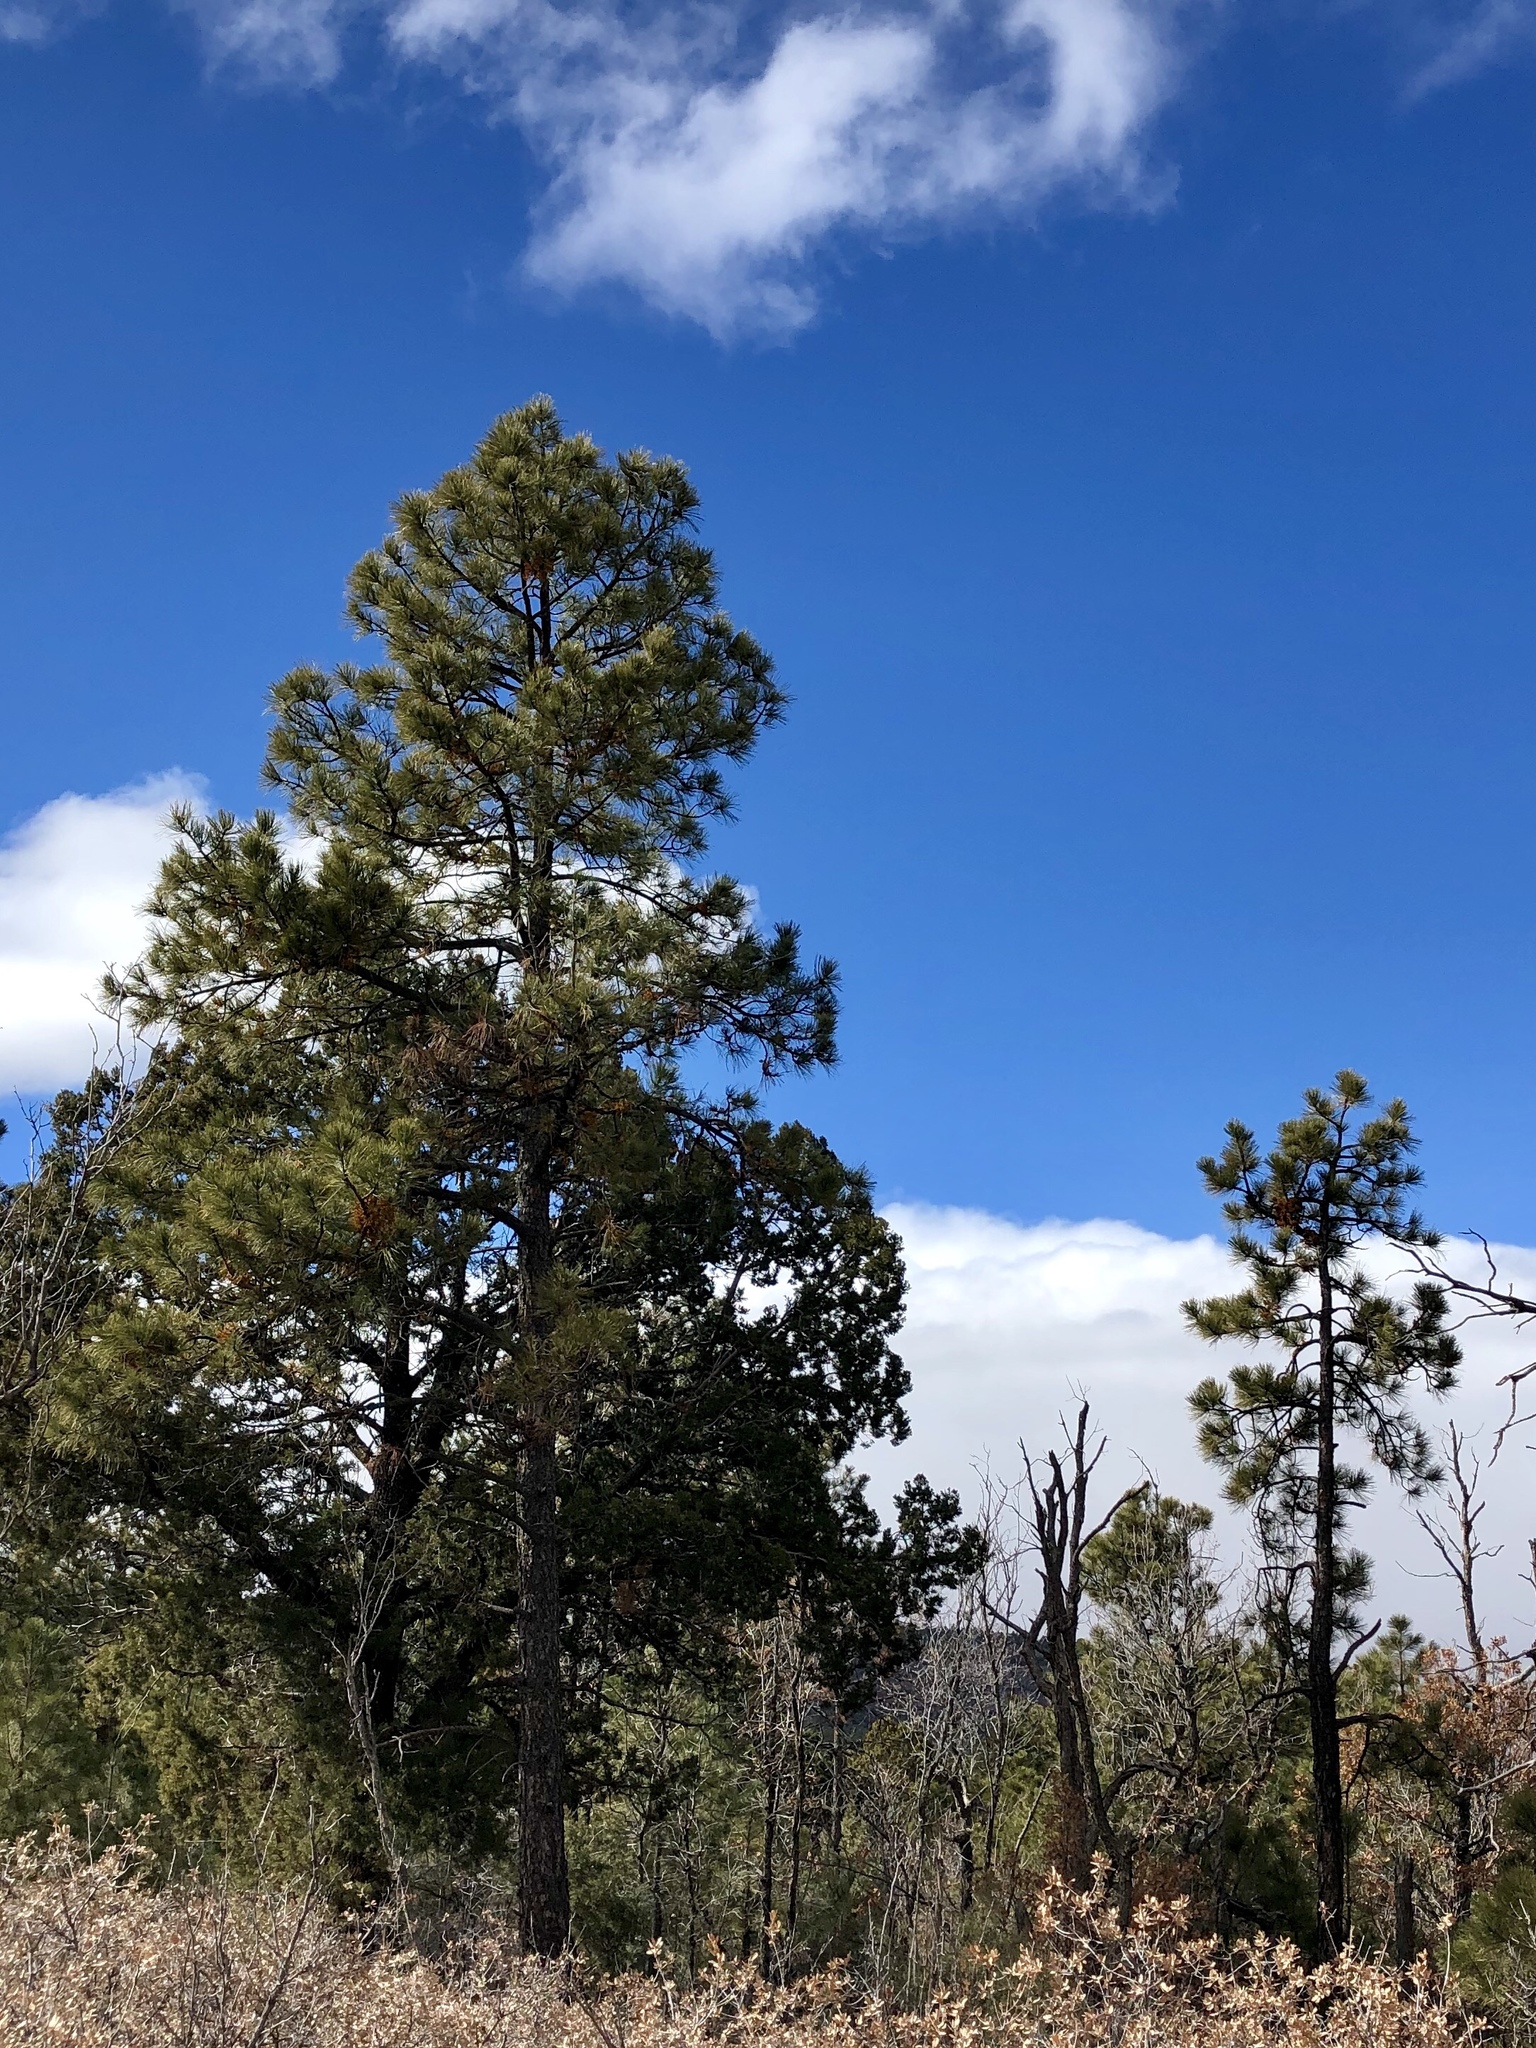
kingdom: Plantae
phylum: Tracheophyta
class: Pinopsida
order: Pinales
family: Pinaceae
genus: Pinus
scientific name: Pinus ponderosa
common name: Western yellow-pine
